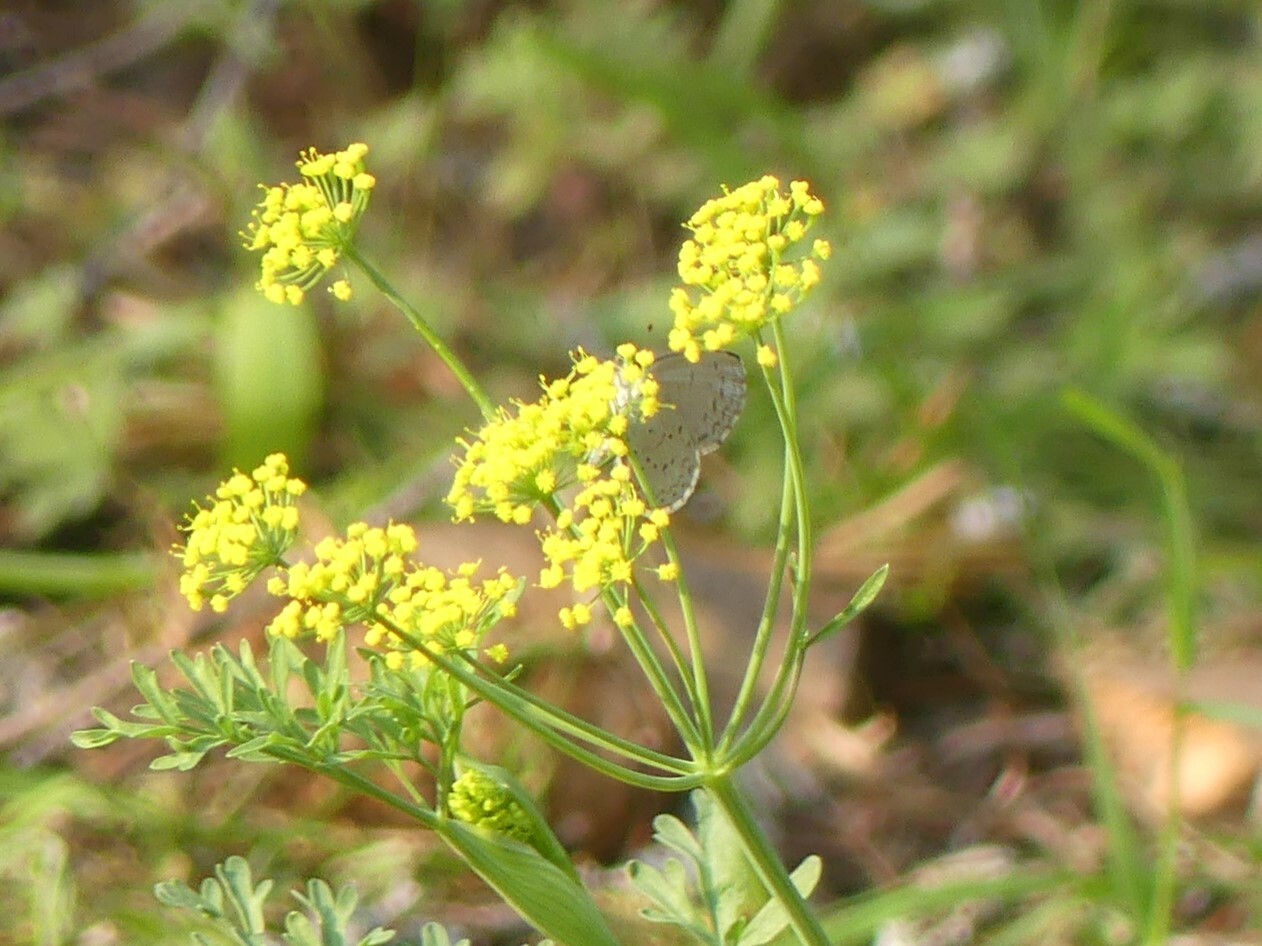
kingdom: Animalia
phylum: Arthropoda
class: Insecta
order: Lepidoptera
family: Lycaenidae
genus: Celastrina
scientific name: Celastrina ladon
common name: Spring azure
